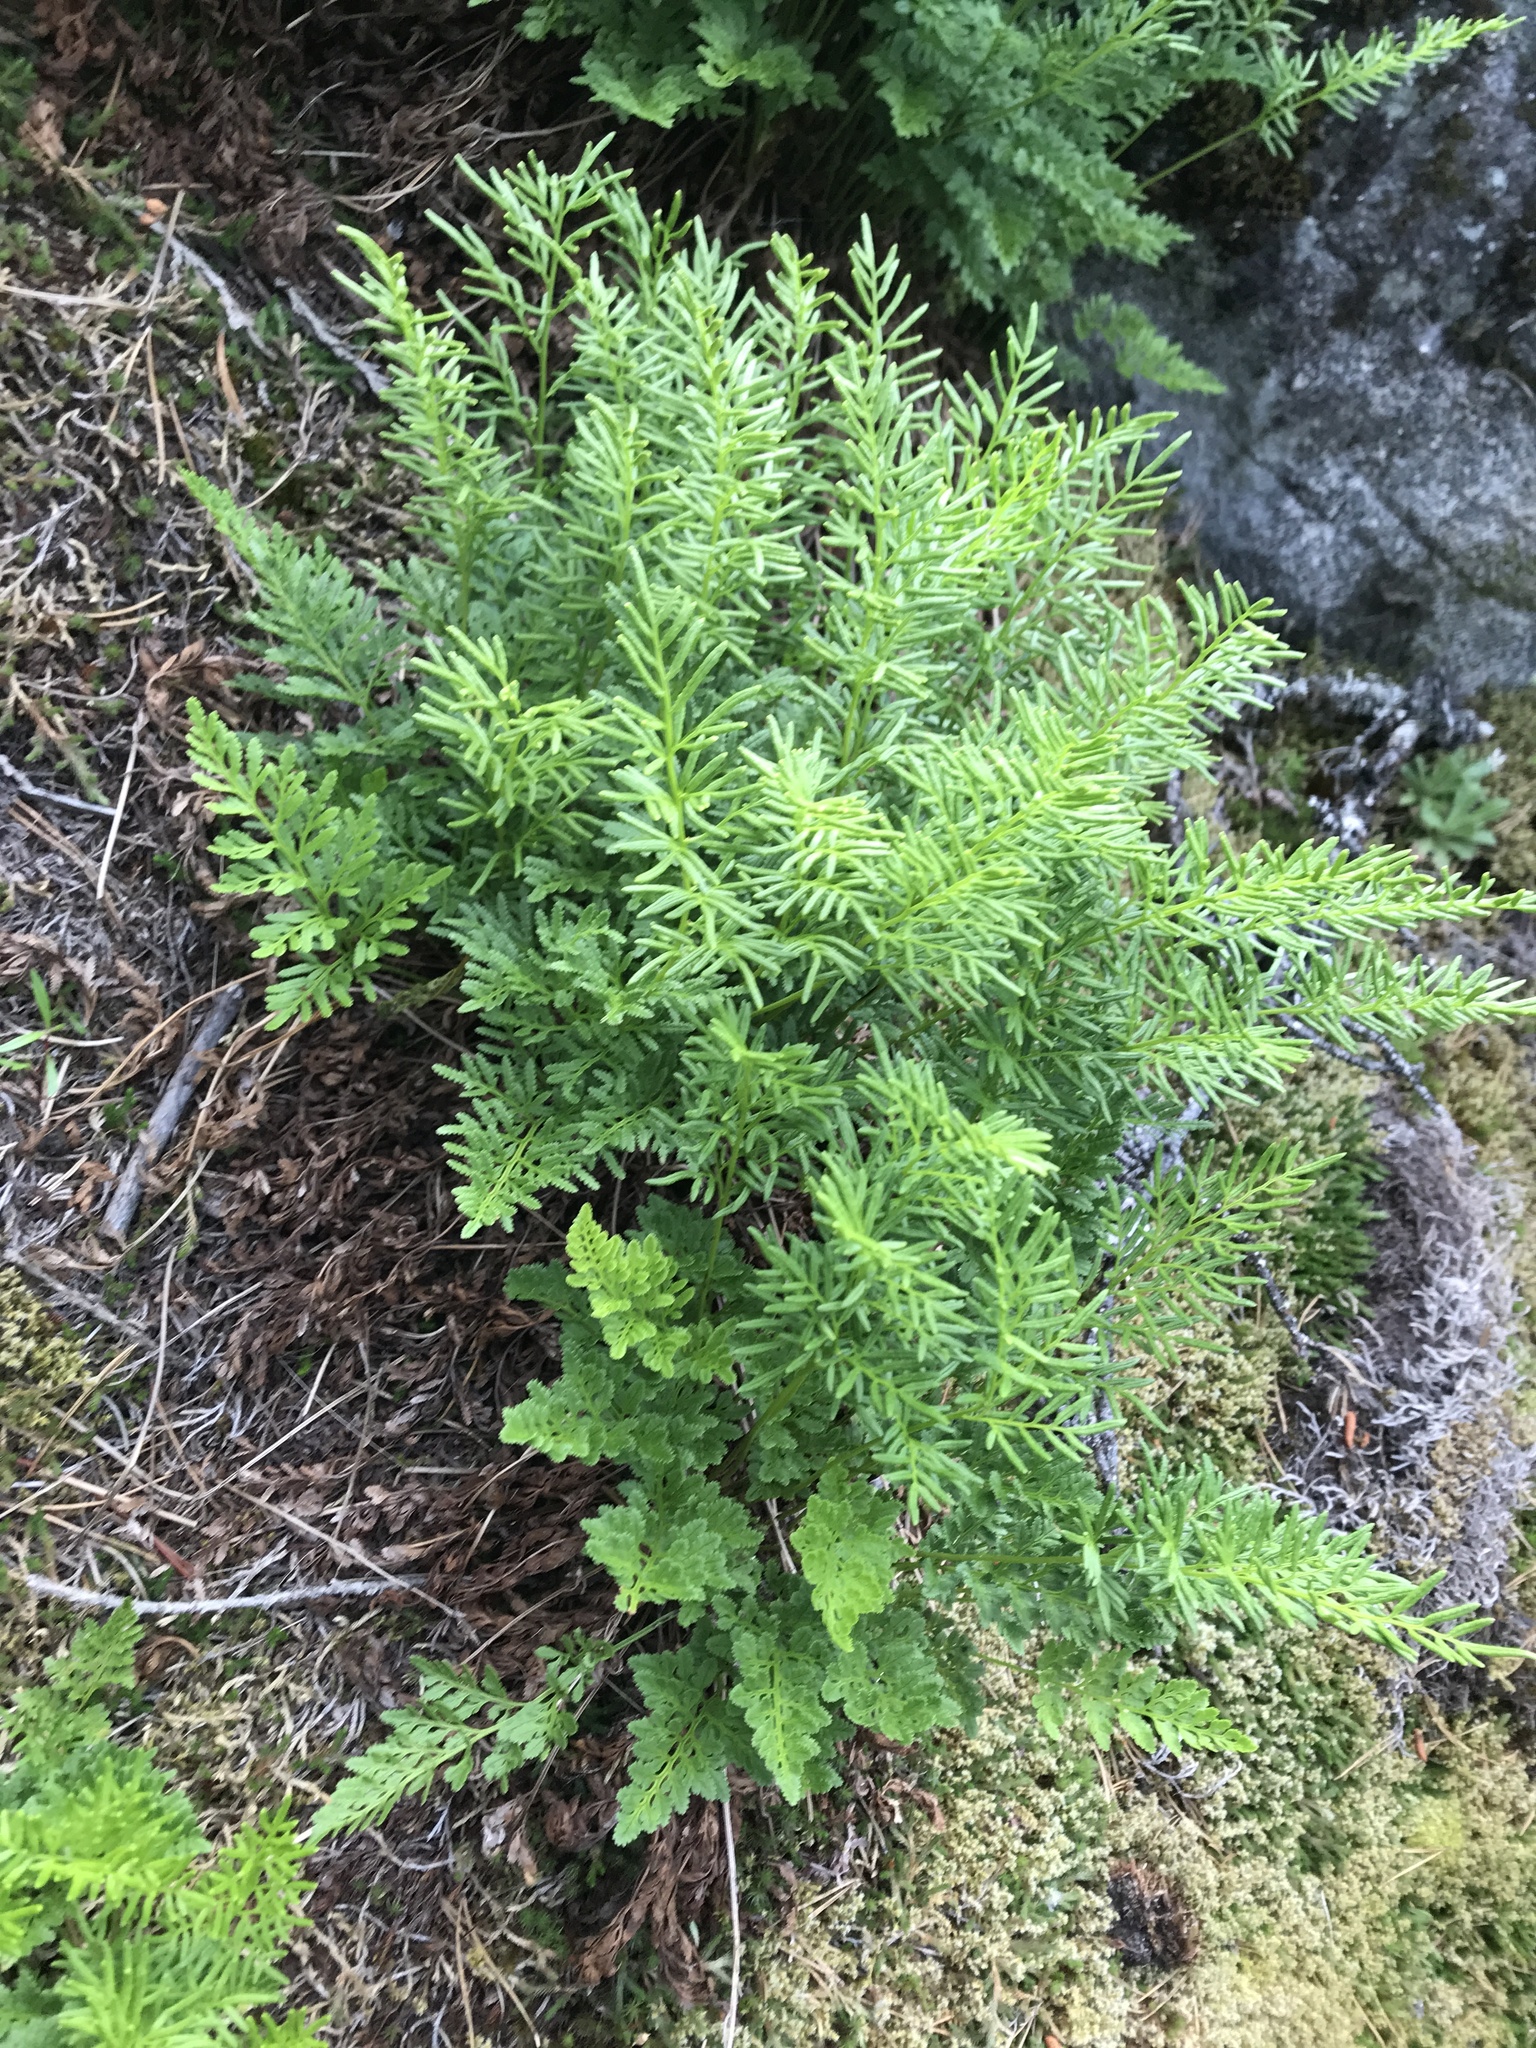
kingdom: Plantae
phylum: Tracheophyta
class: Polypodiopsida
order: Polypodiales
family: Pteridaceae
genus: Cryptogramma
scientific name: Cryptogramma acrostichoides
